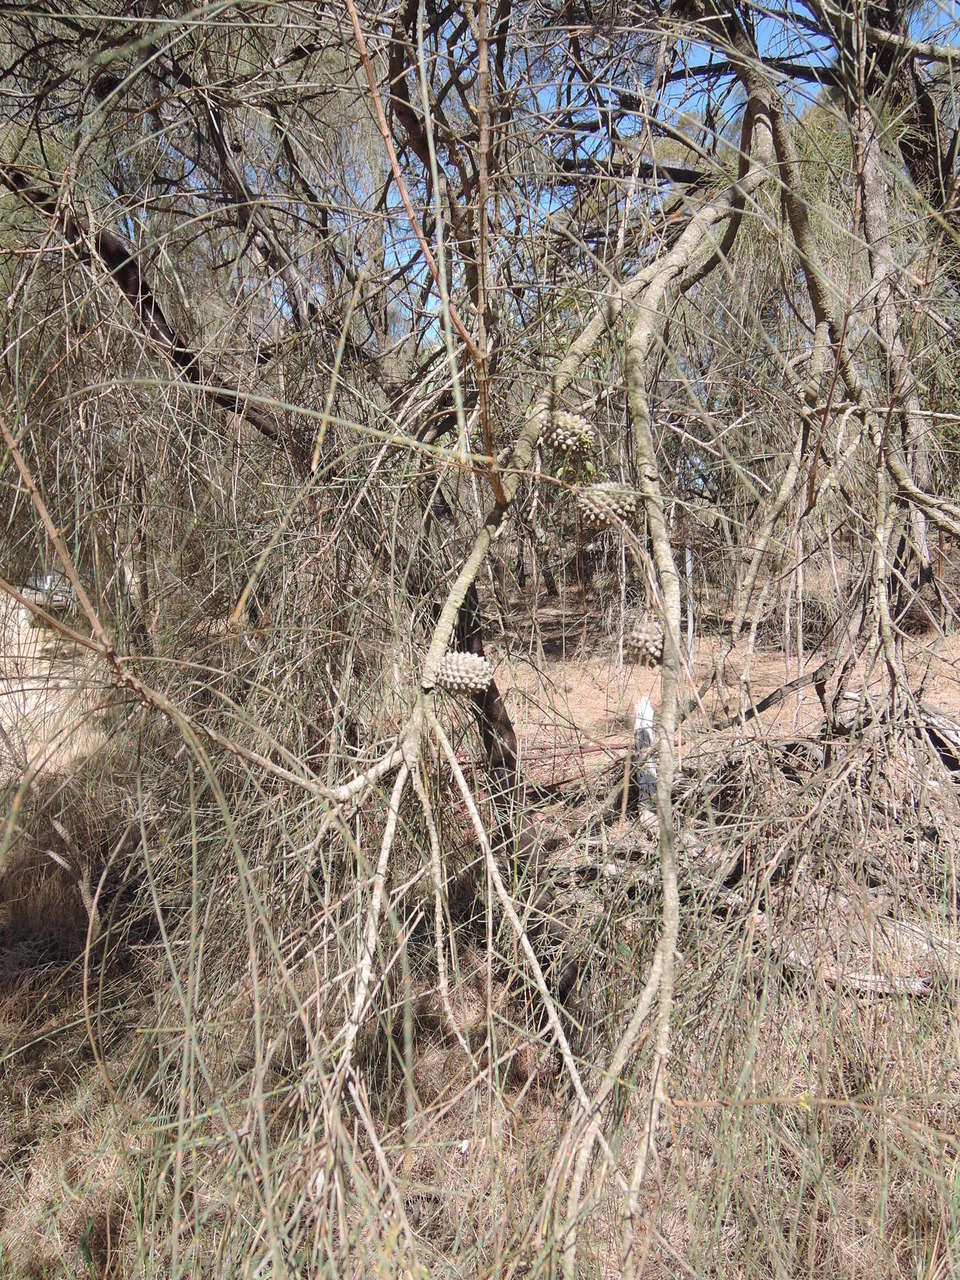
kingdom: Plantae
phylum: Tracheophyta
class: Magnoliopsida
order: Fagales
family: Casuarinaceae
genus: Allocasuarina
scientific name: Allocasuarina verticillata
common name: Drooping she-oak
